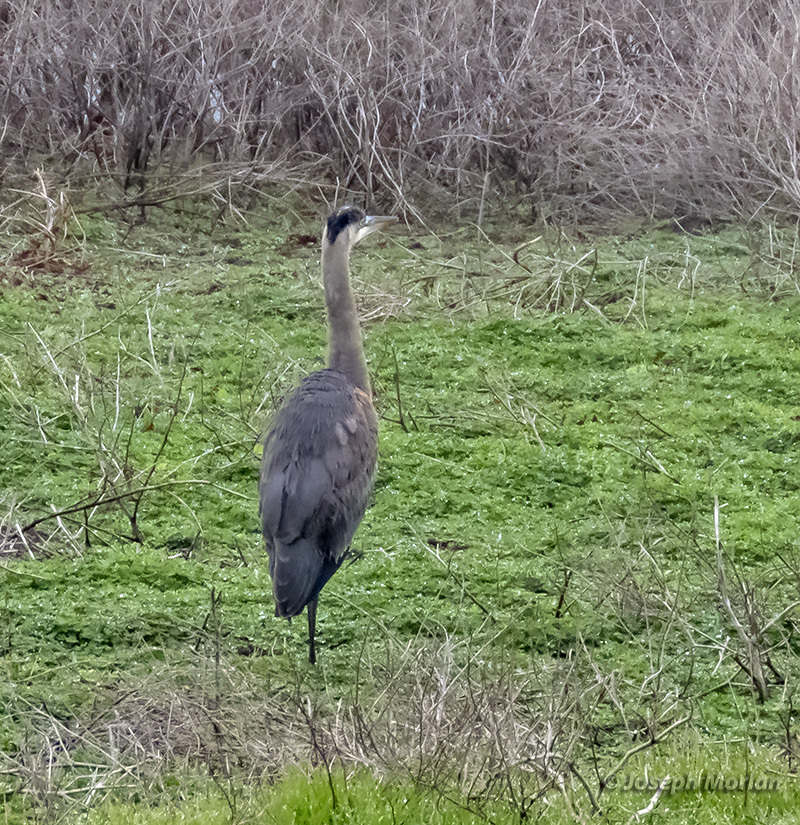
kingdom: Animalia
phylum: Chordata
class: Aves
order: Pelecaniformes
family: Ardeidae
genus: Ardea
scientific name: Ardea herodias
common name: Great blue heron
